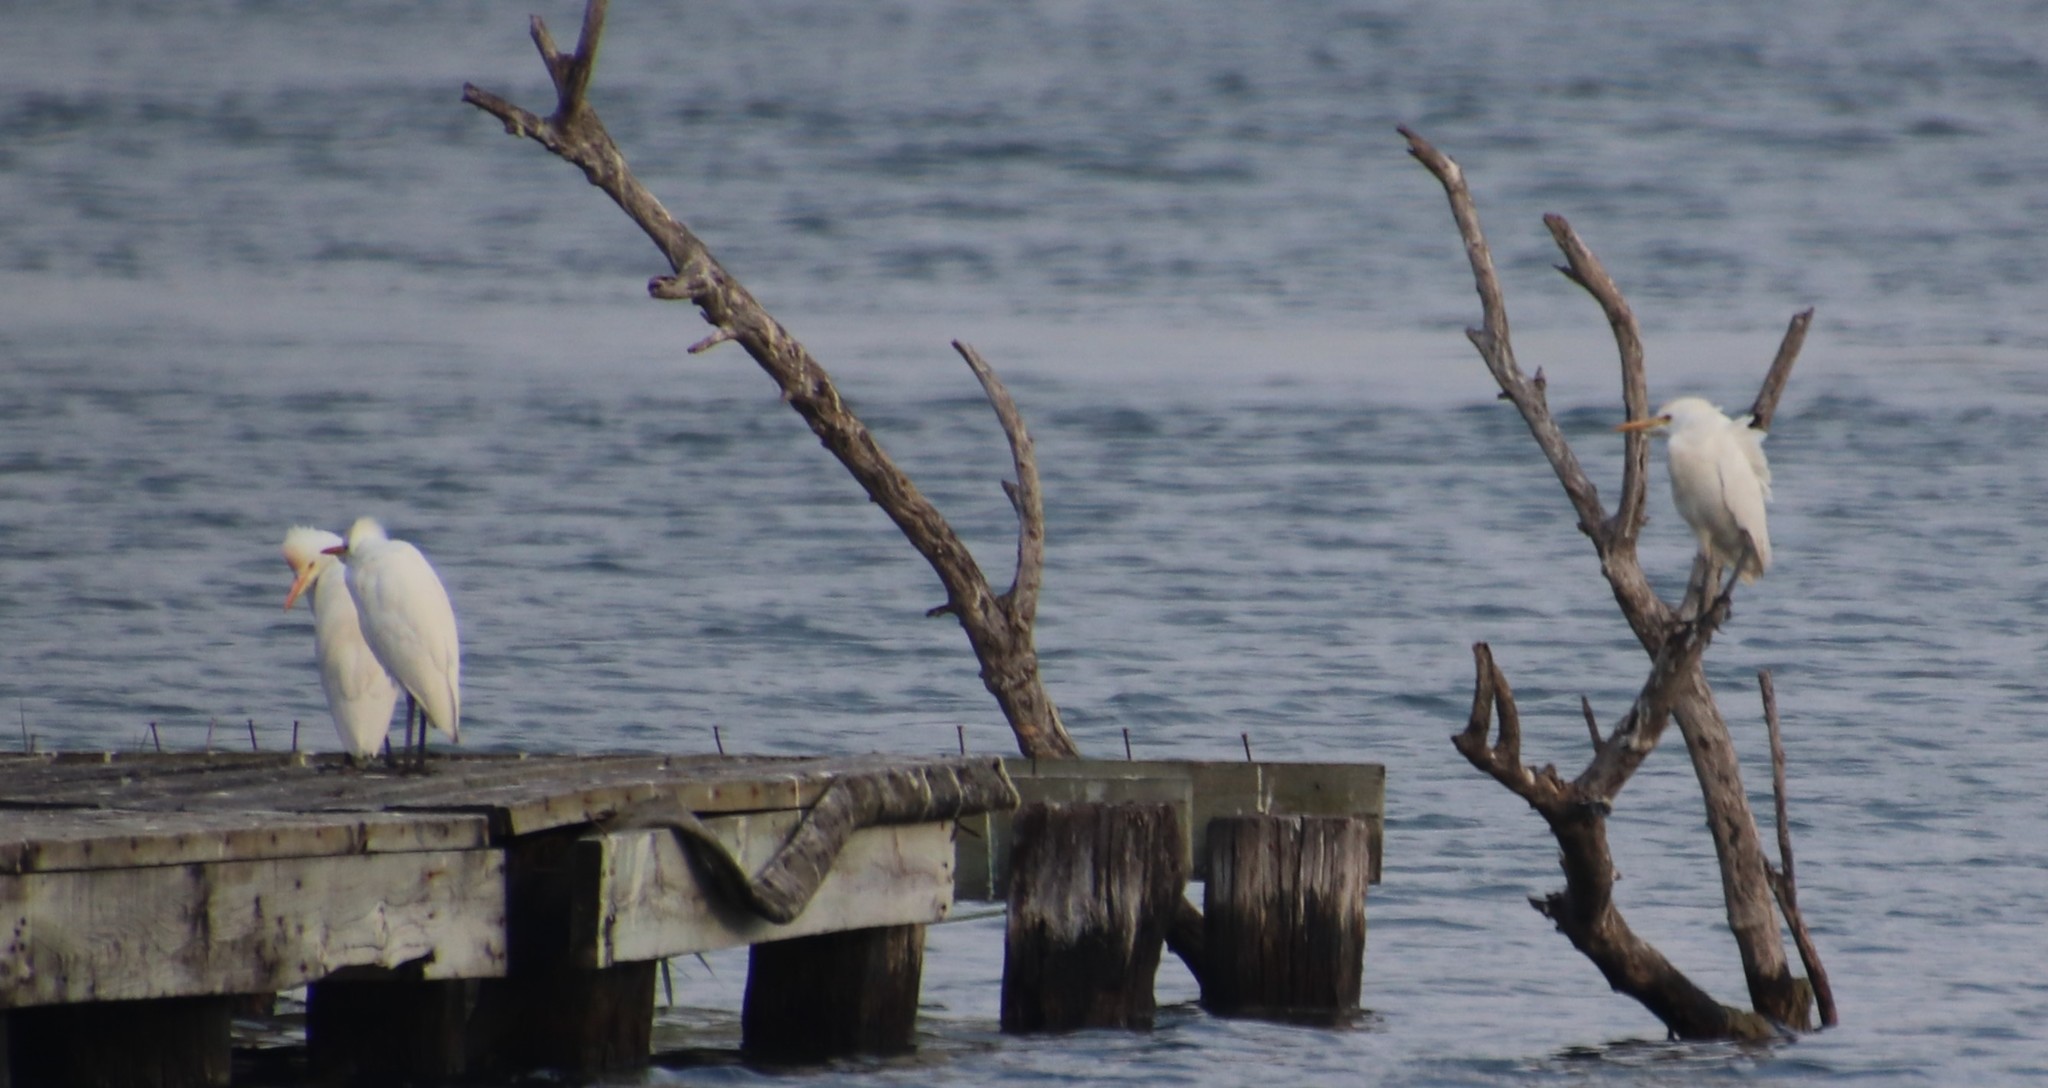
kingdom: Animalia
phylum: Chordata
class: Aves
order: Pelecaniformes
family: Ardeidae
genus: Bubulcus
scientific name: Bubulcus ibis
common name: Cattle egret
